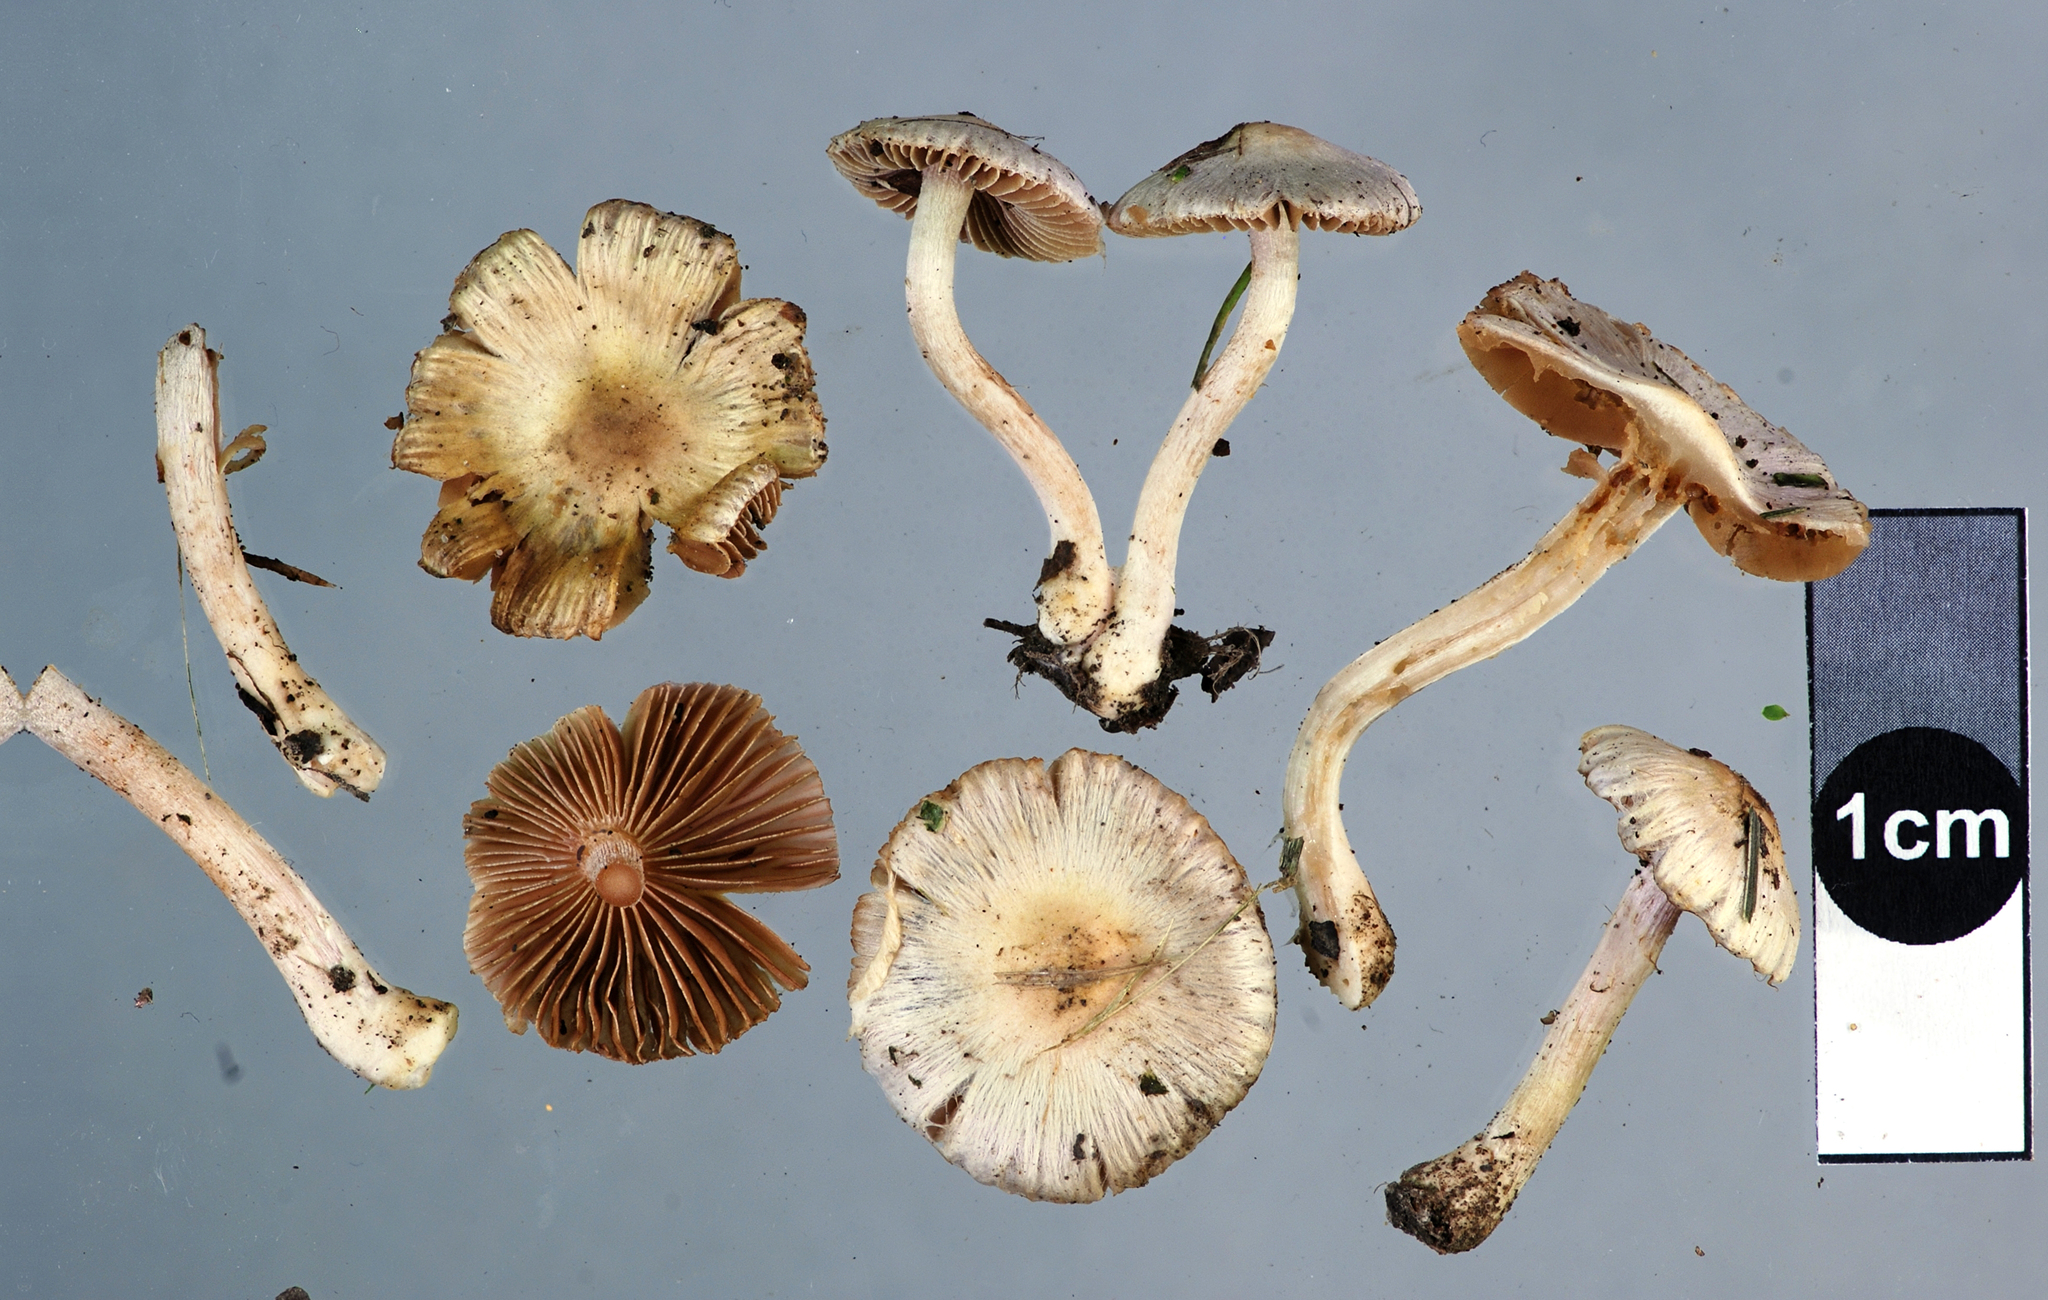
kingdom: Fungi
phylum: Basidiomycota
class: Agaricomycetes
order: Agaricales
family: Inocybaceae
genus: Inocybe
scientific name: Inocybe geophylla
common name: White fibrecap
